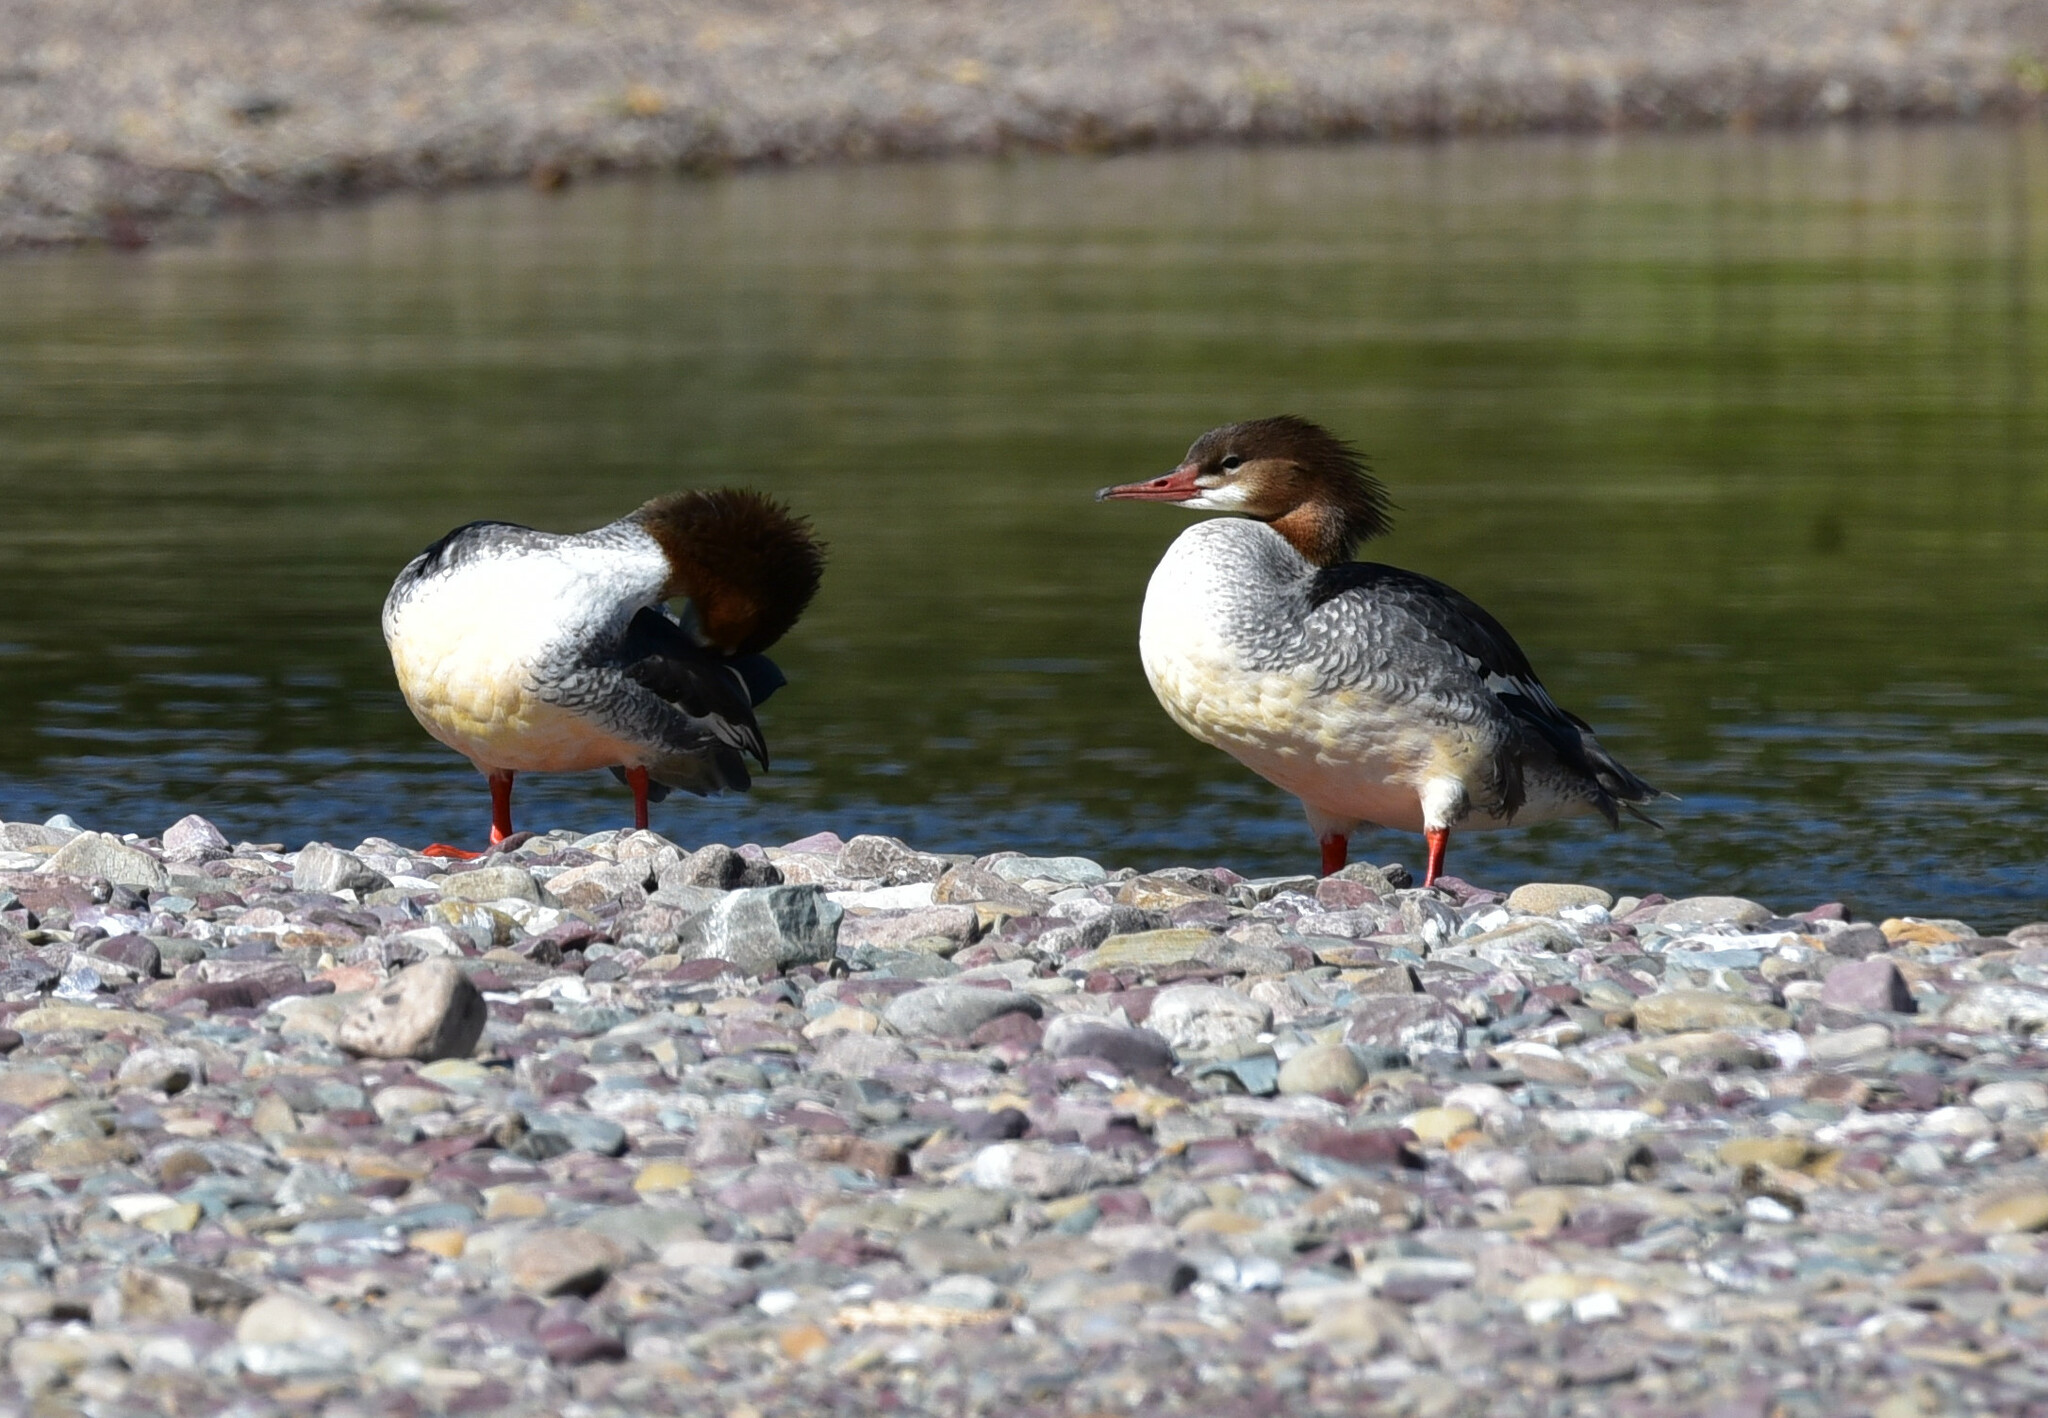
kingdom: Animalia
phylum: Chordata
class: Aves
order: Anseriformes
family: Anatidae
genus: Mergus
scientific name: Mergus merganser
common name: Common merganser
